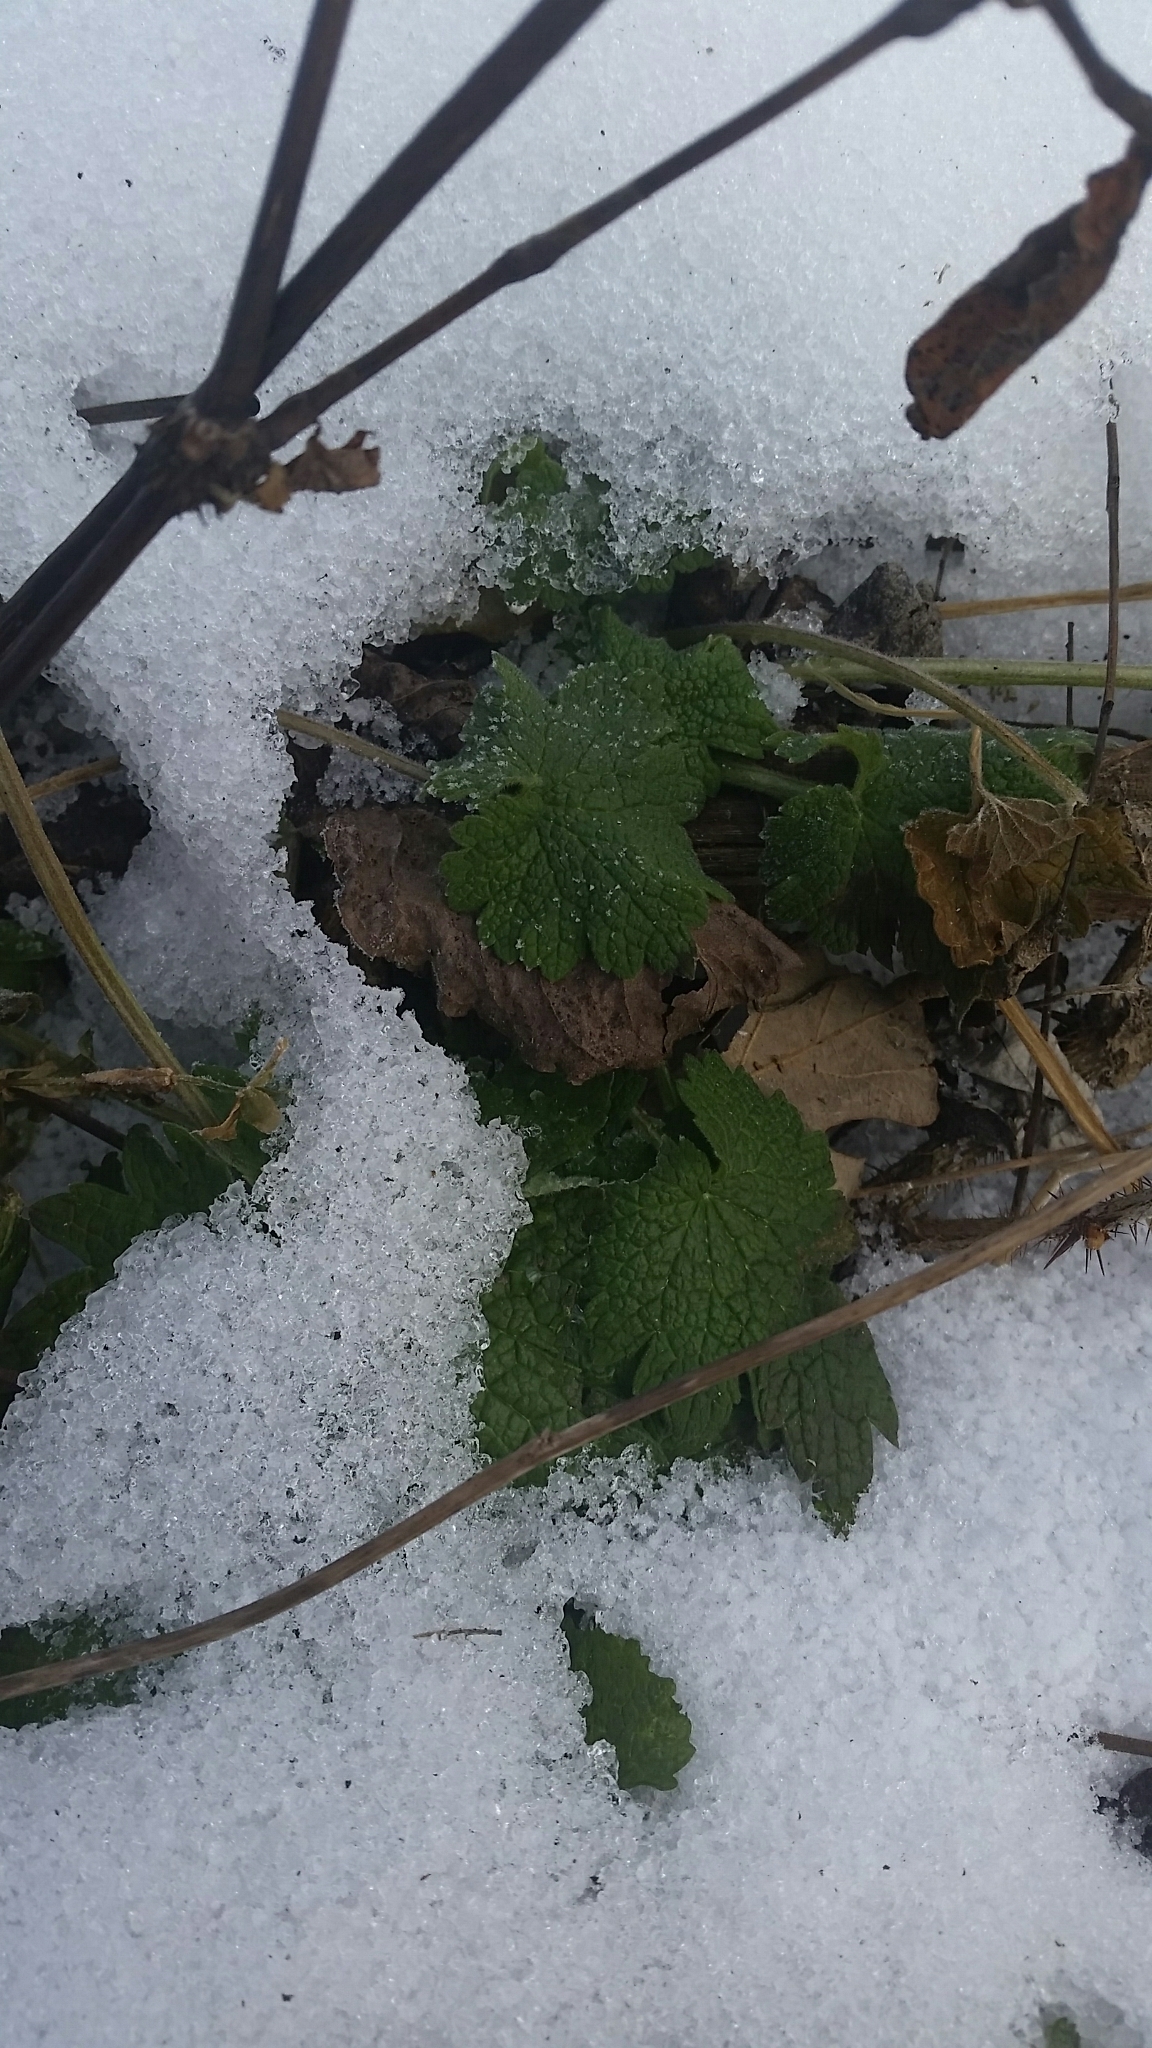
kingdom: Plantae
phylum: Tracheophyta
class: Magnoliopsida
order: Lamiales
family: Lamiaceae
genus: Leonurus
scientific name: Leonurus cardiaca
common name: Motherwort
